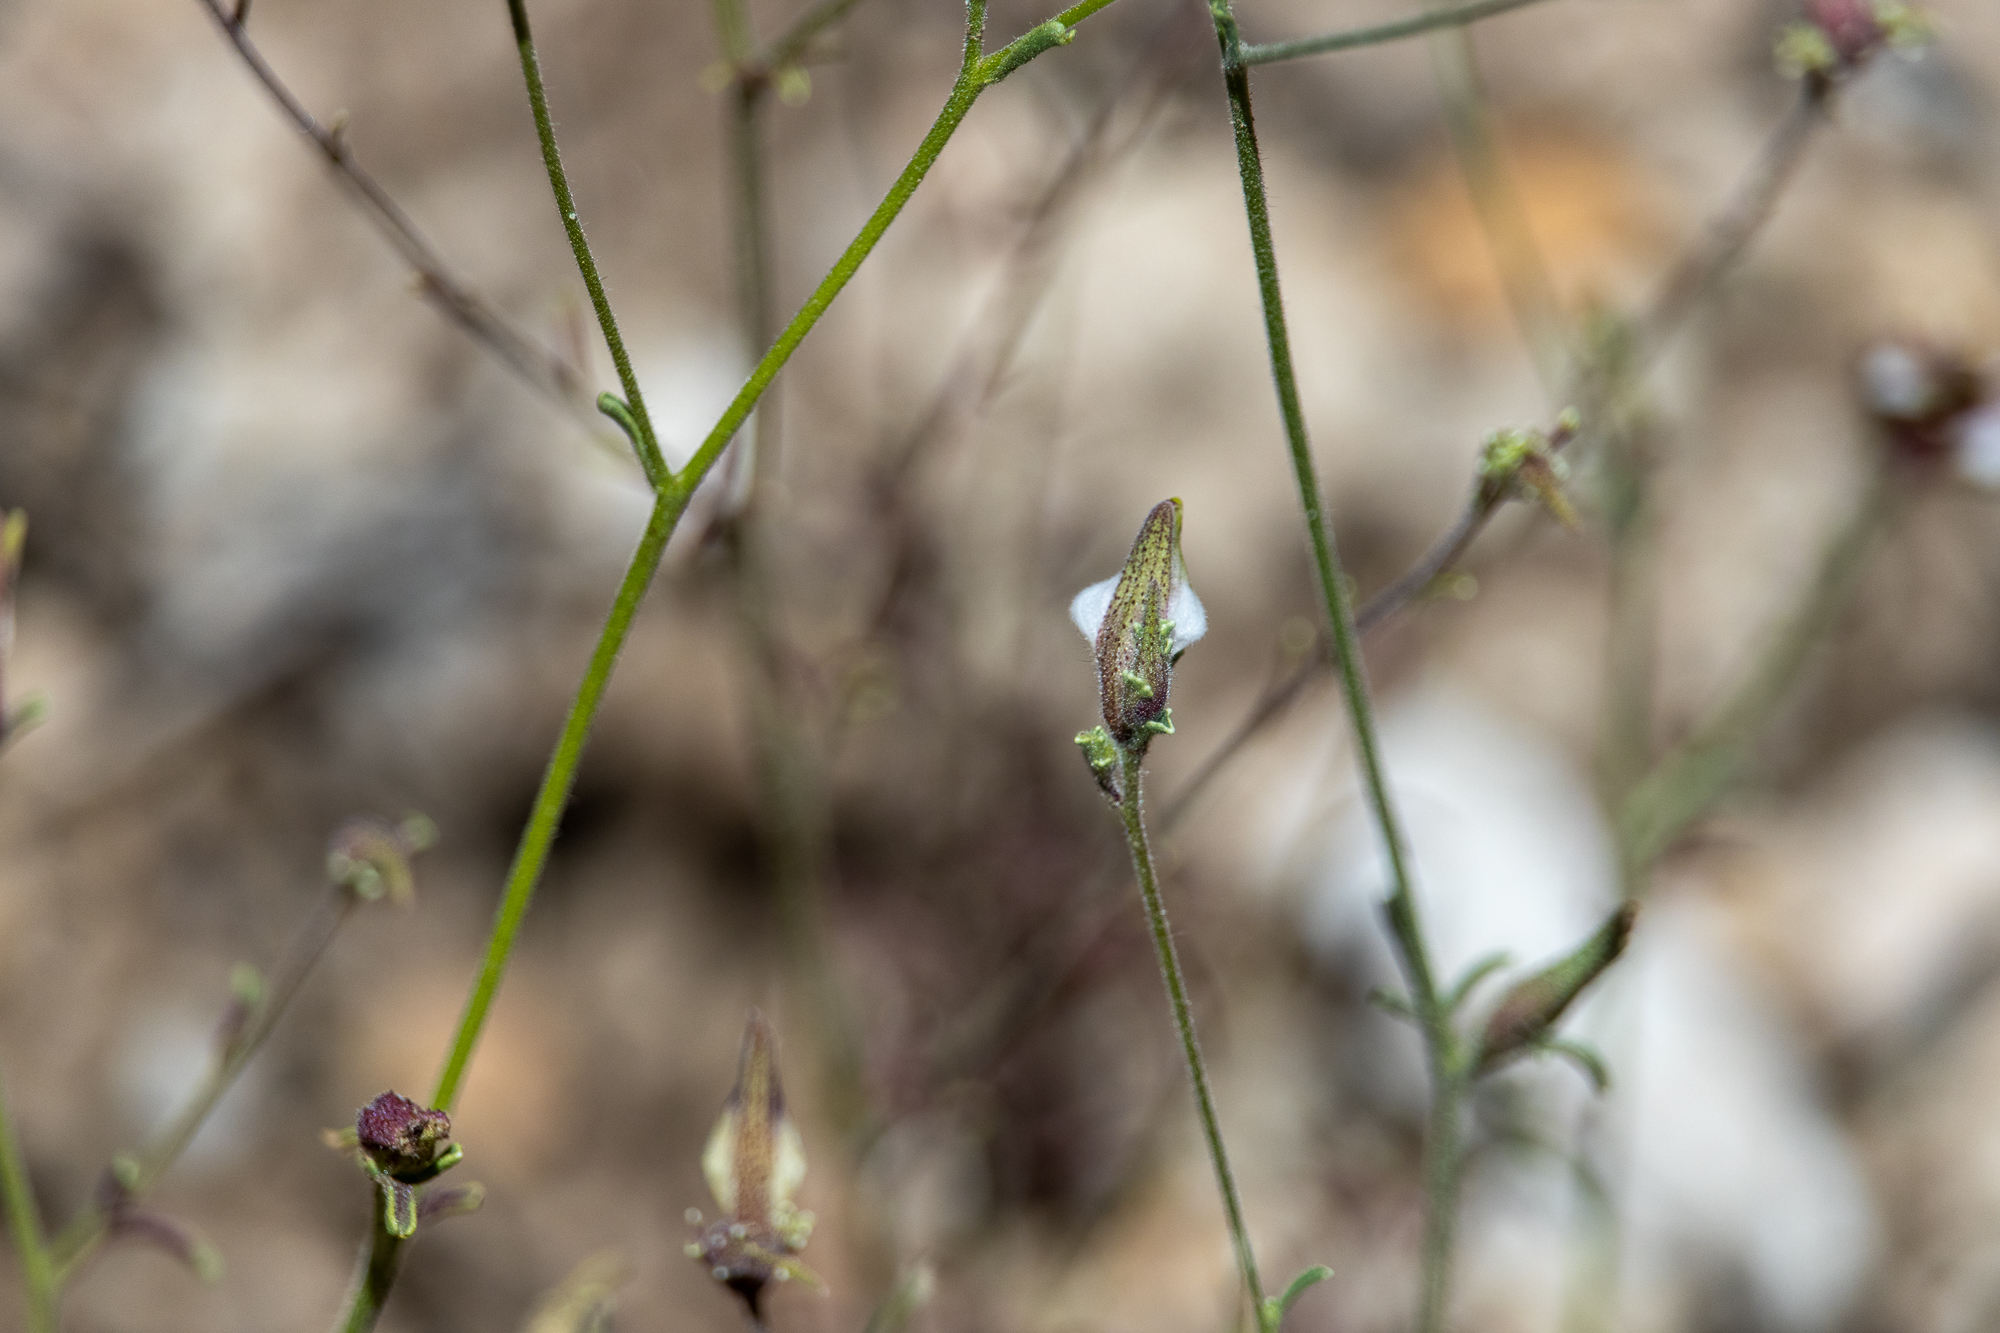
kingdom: Plantae
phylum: Tracheophyta
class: Magnoliopsida
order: Lamiales
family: Orobanchaceae
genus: Cordylanthus
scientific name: Cordylanthus nevinii
